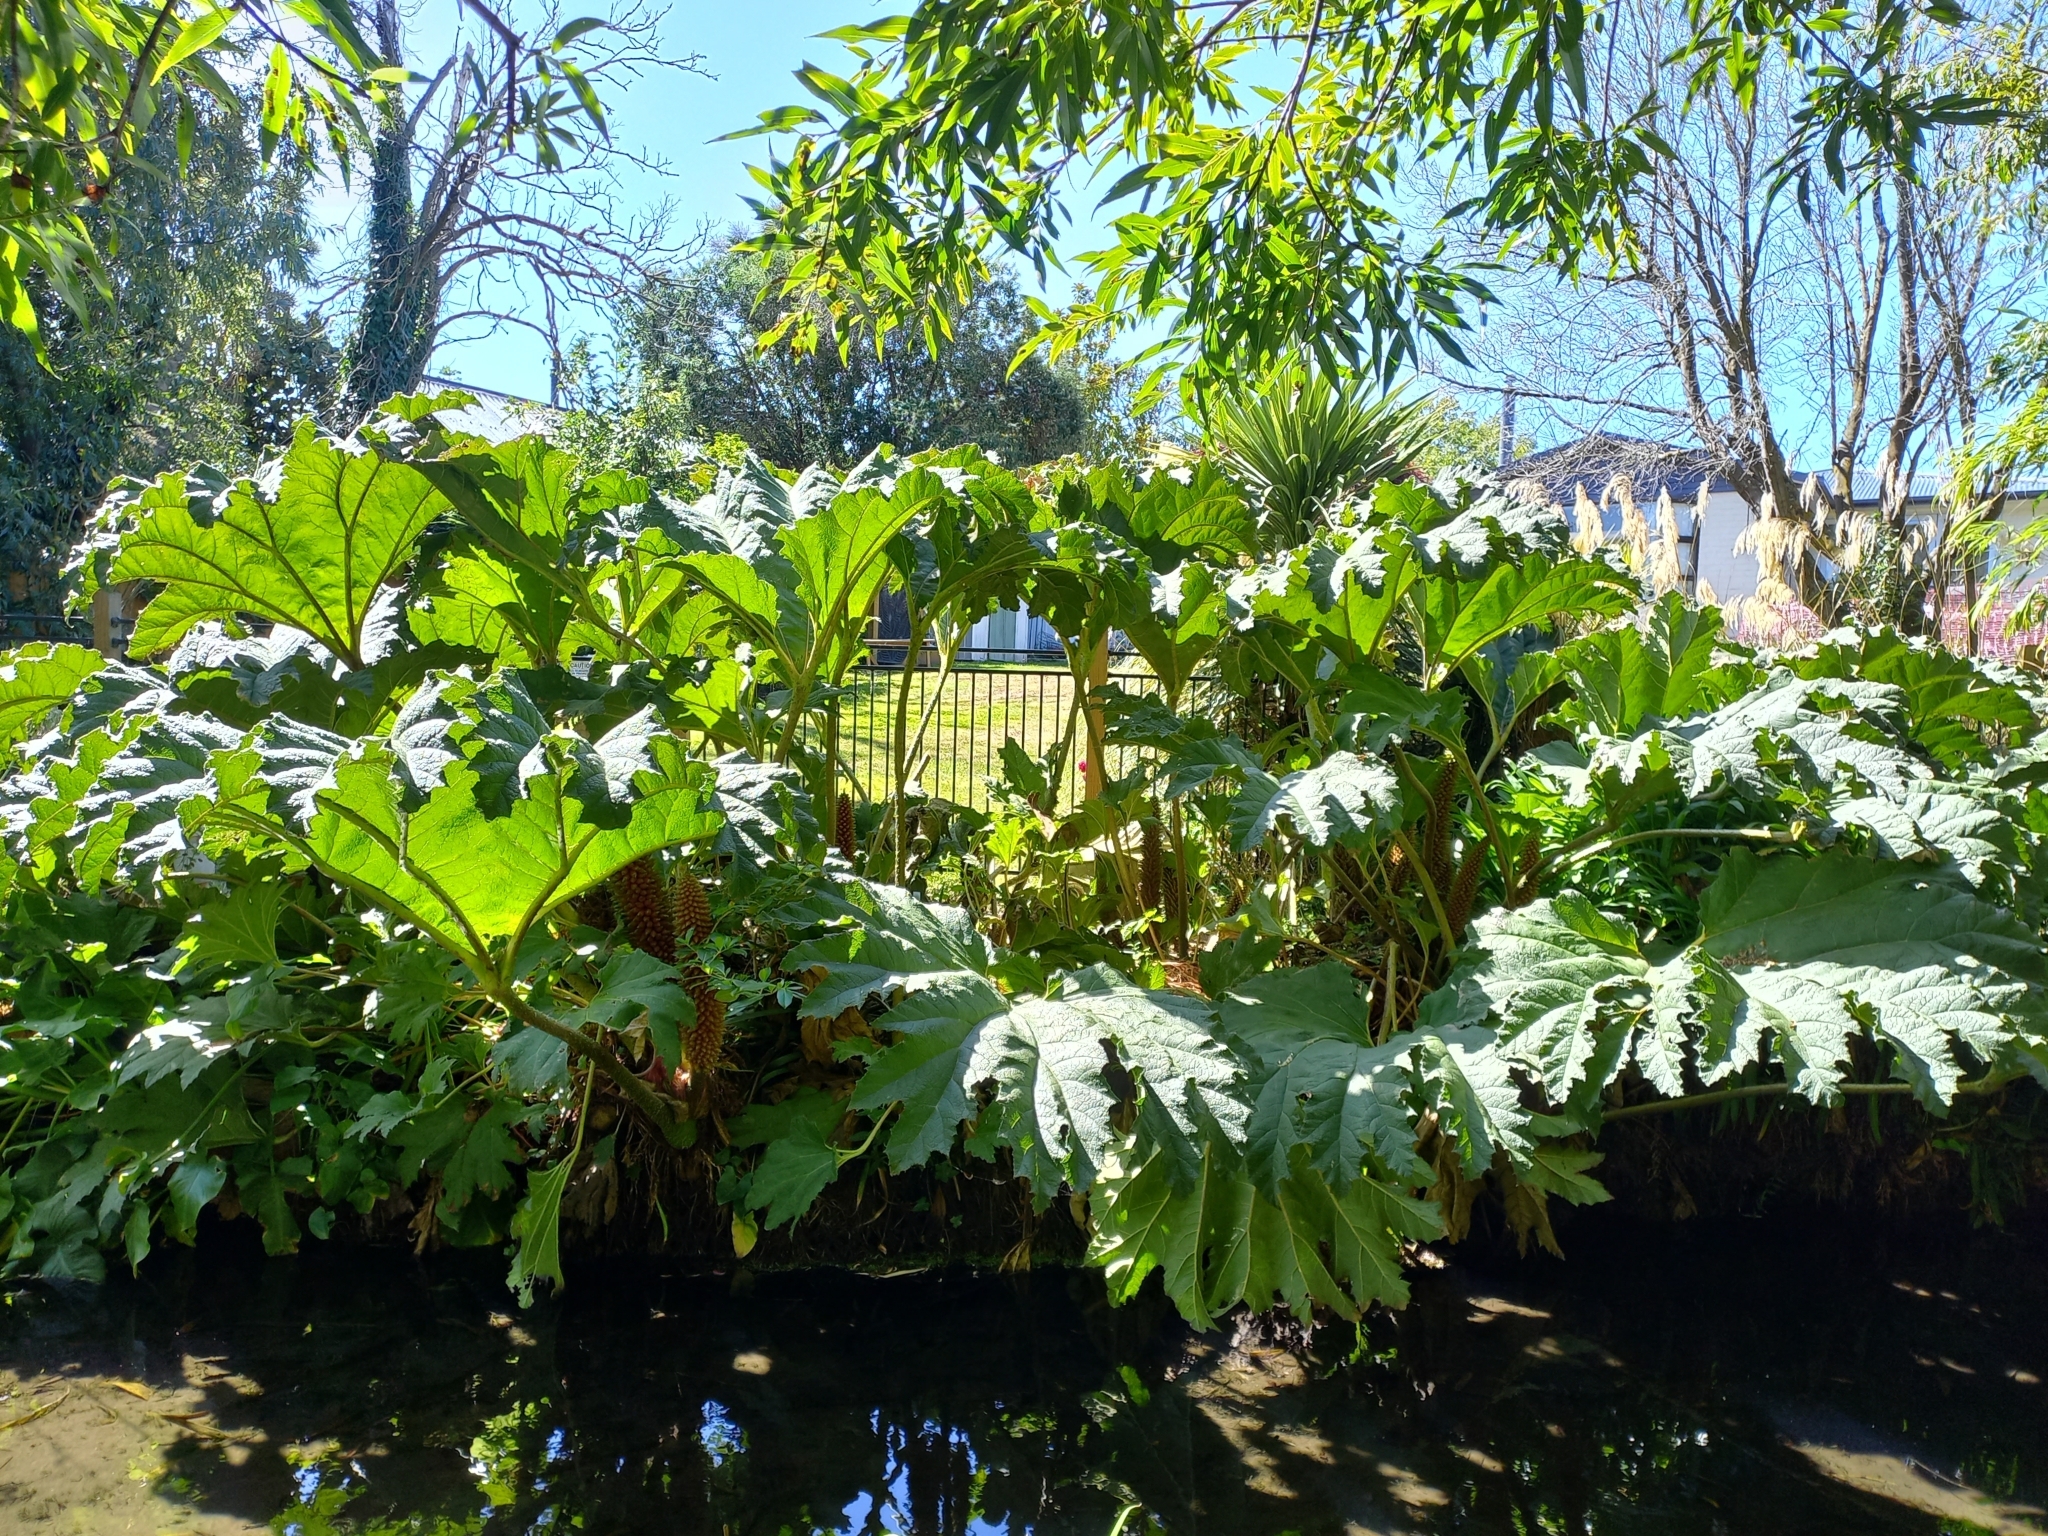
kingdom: Plantae
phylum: Tracheophyta
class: Magnoliopsida
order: Gunnerales
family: Gunneraceae
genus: Gunnera
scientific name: Gunnera tinctoria
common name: Giant-rhubarb
